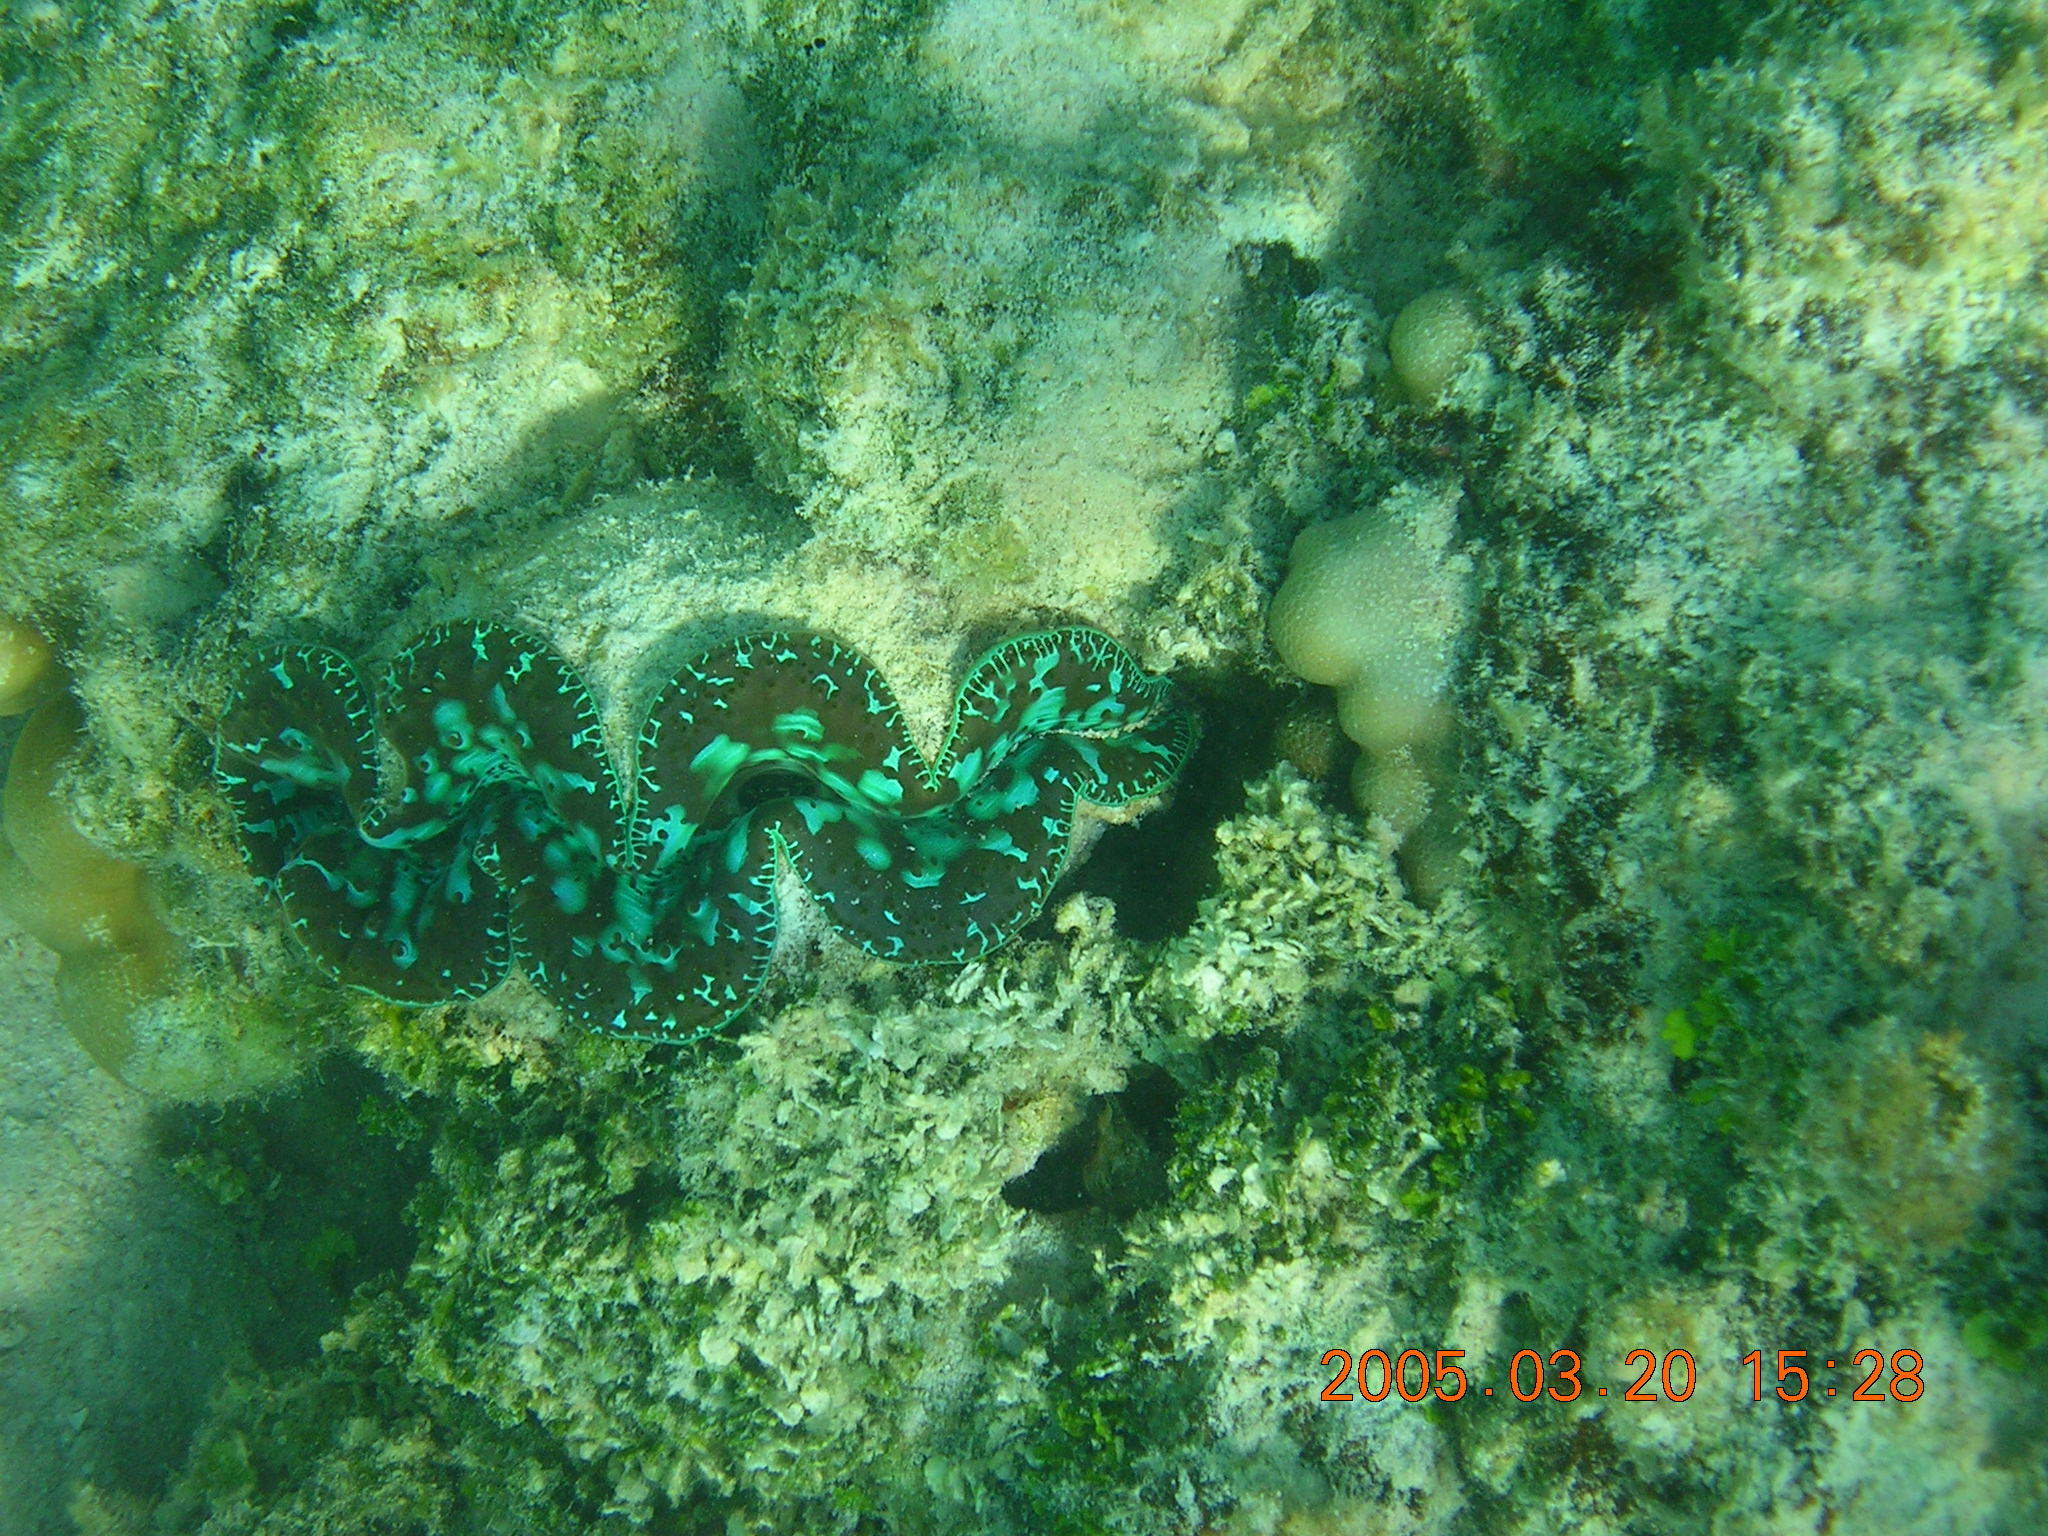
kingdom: Animalia
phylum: Mollusca
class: Bivalvia
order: Cardiida
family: Cardiidae
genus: Tridacna
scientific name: Tridacna maxima
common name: Small giant clam
